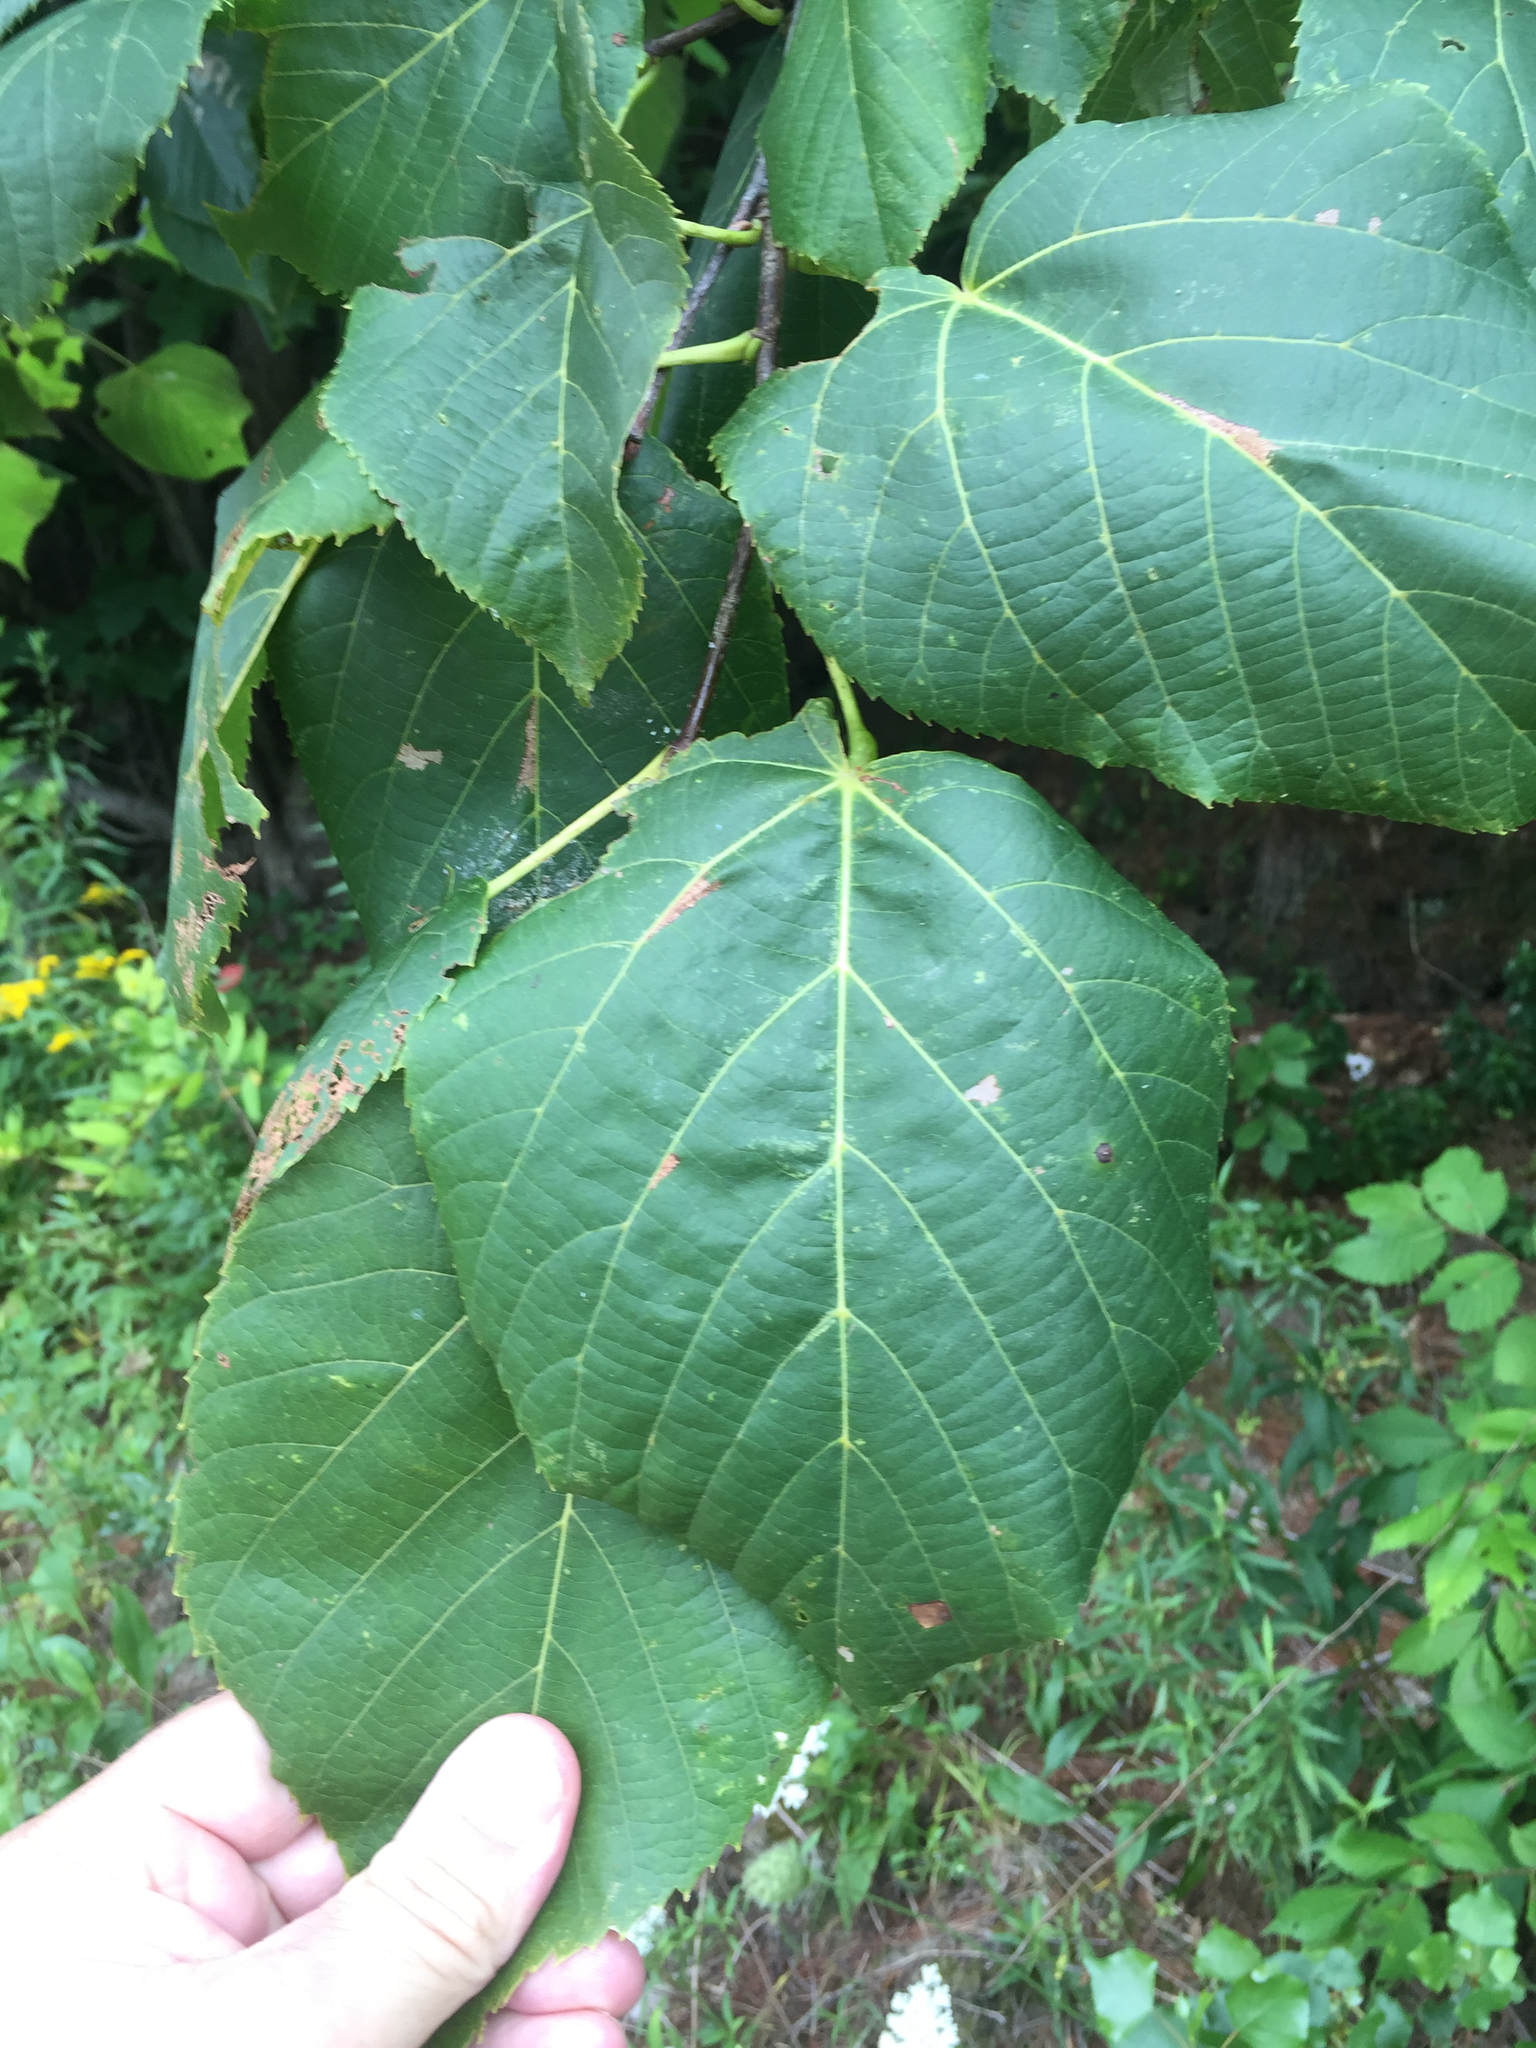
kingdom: Plantae
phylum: Tracheophyta
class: Magnoliopsida
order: Malvales
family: Malvaceae
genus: Tilia
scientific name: Tilia americana
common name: Basswood
